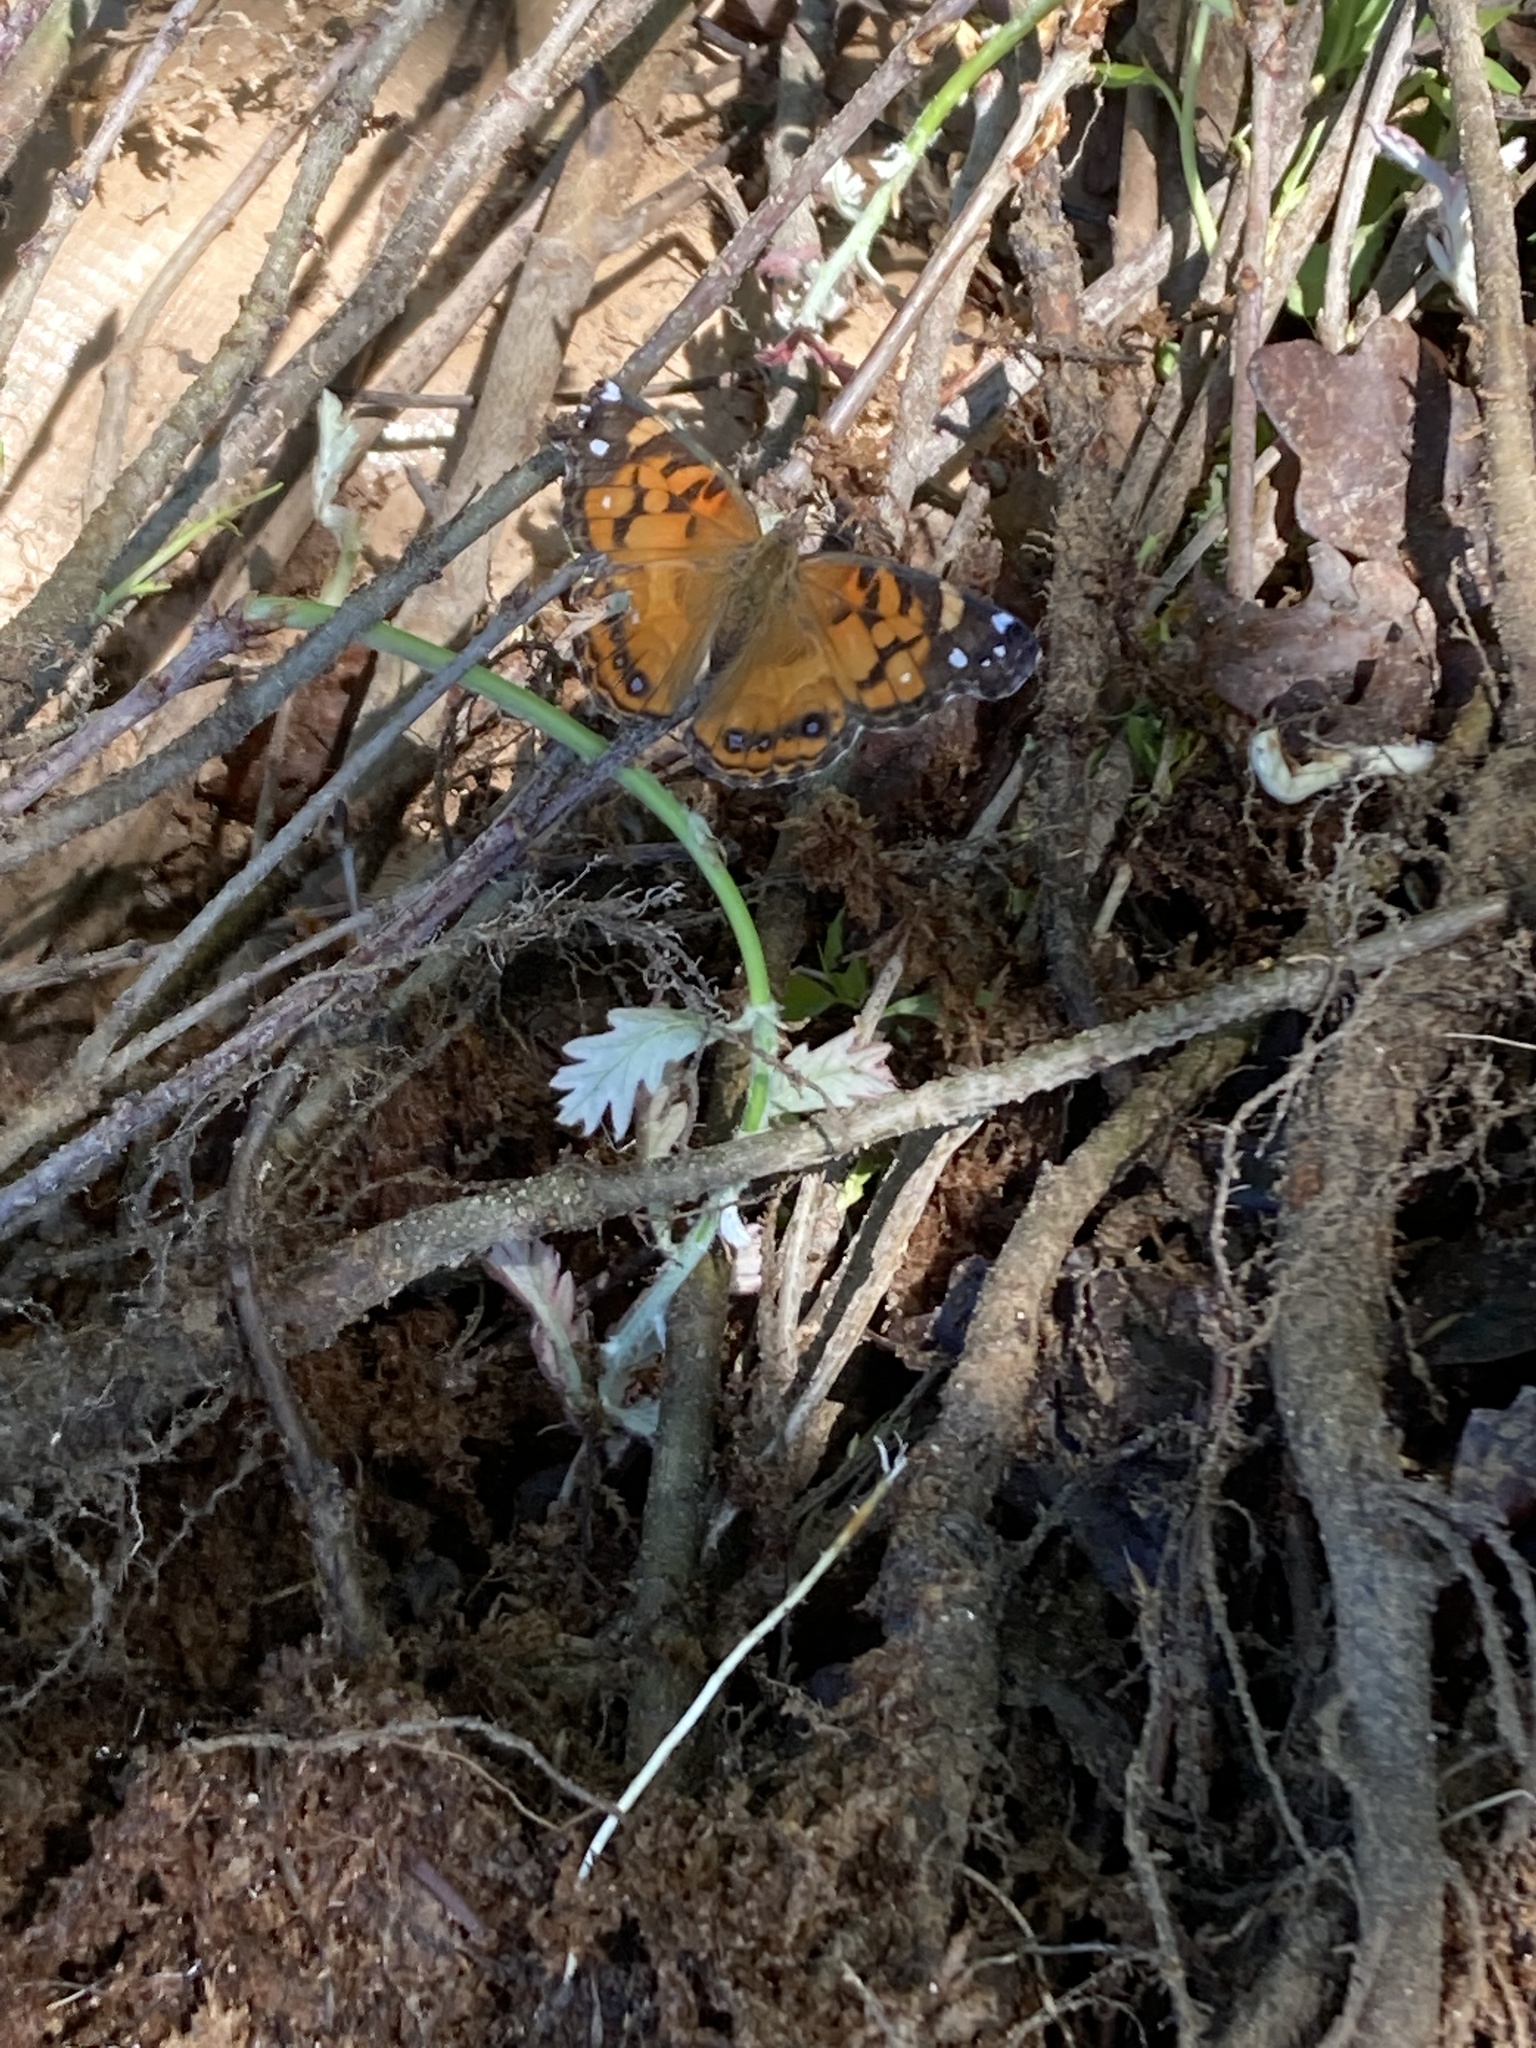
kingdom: Animalia
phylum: Arthropoda
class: Insecta
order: Lepidoptera
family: Nymphalidae
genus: Vanessa
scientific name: Vanessa virginiensis
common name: American lady
